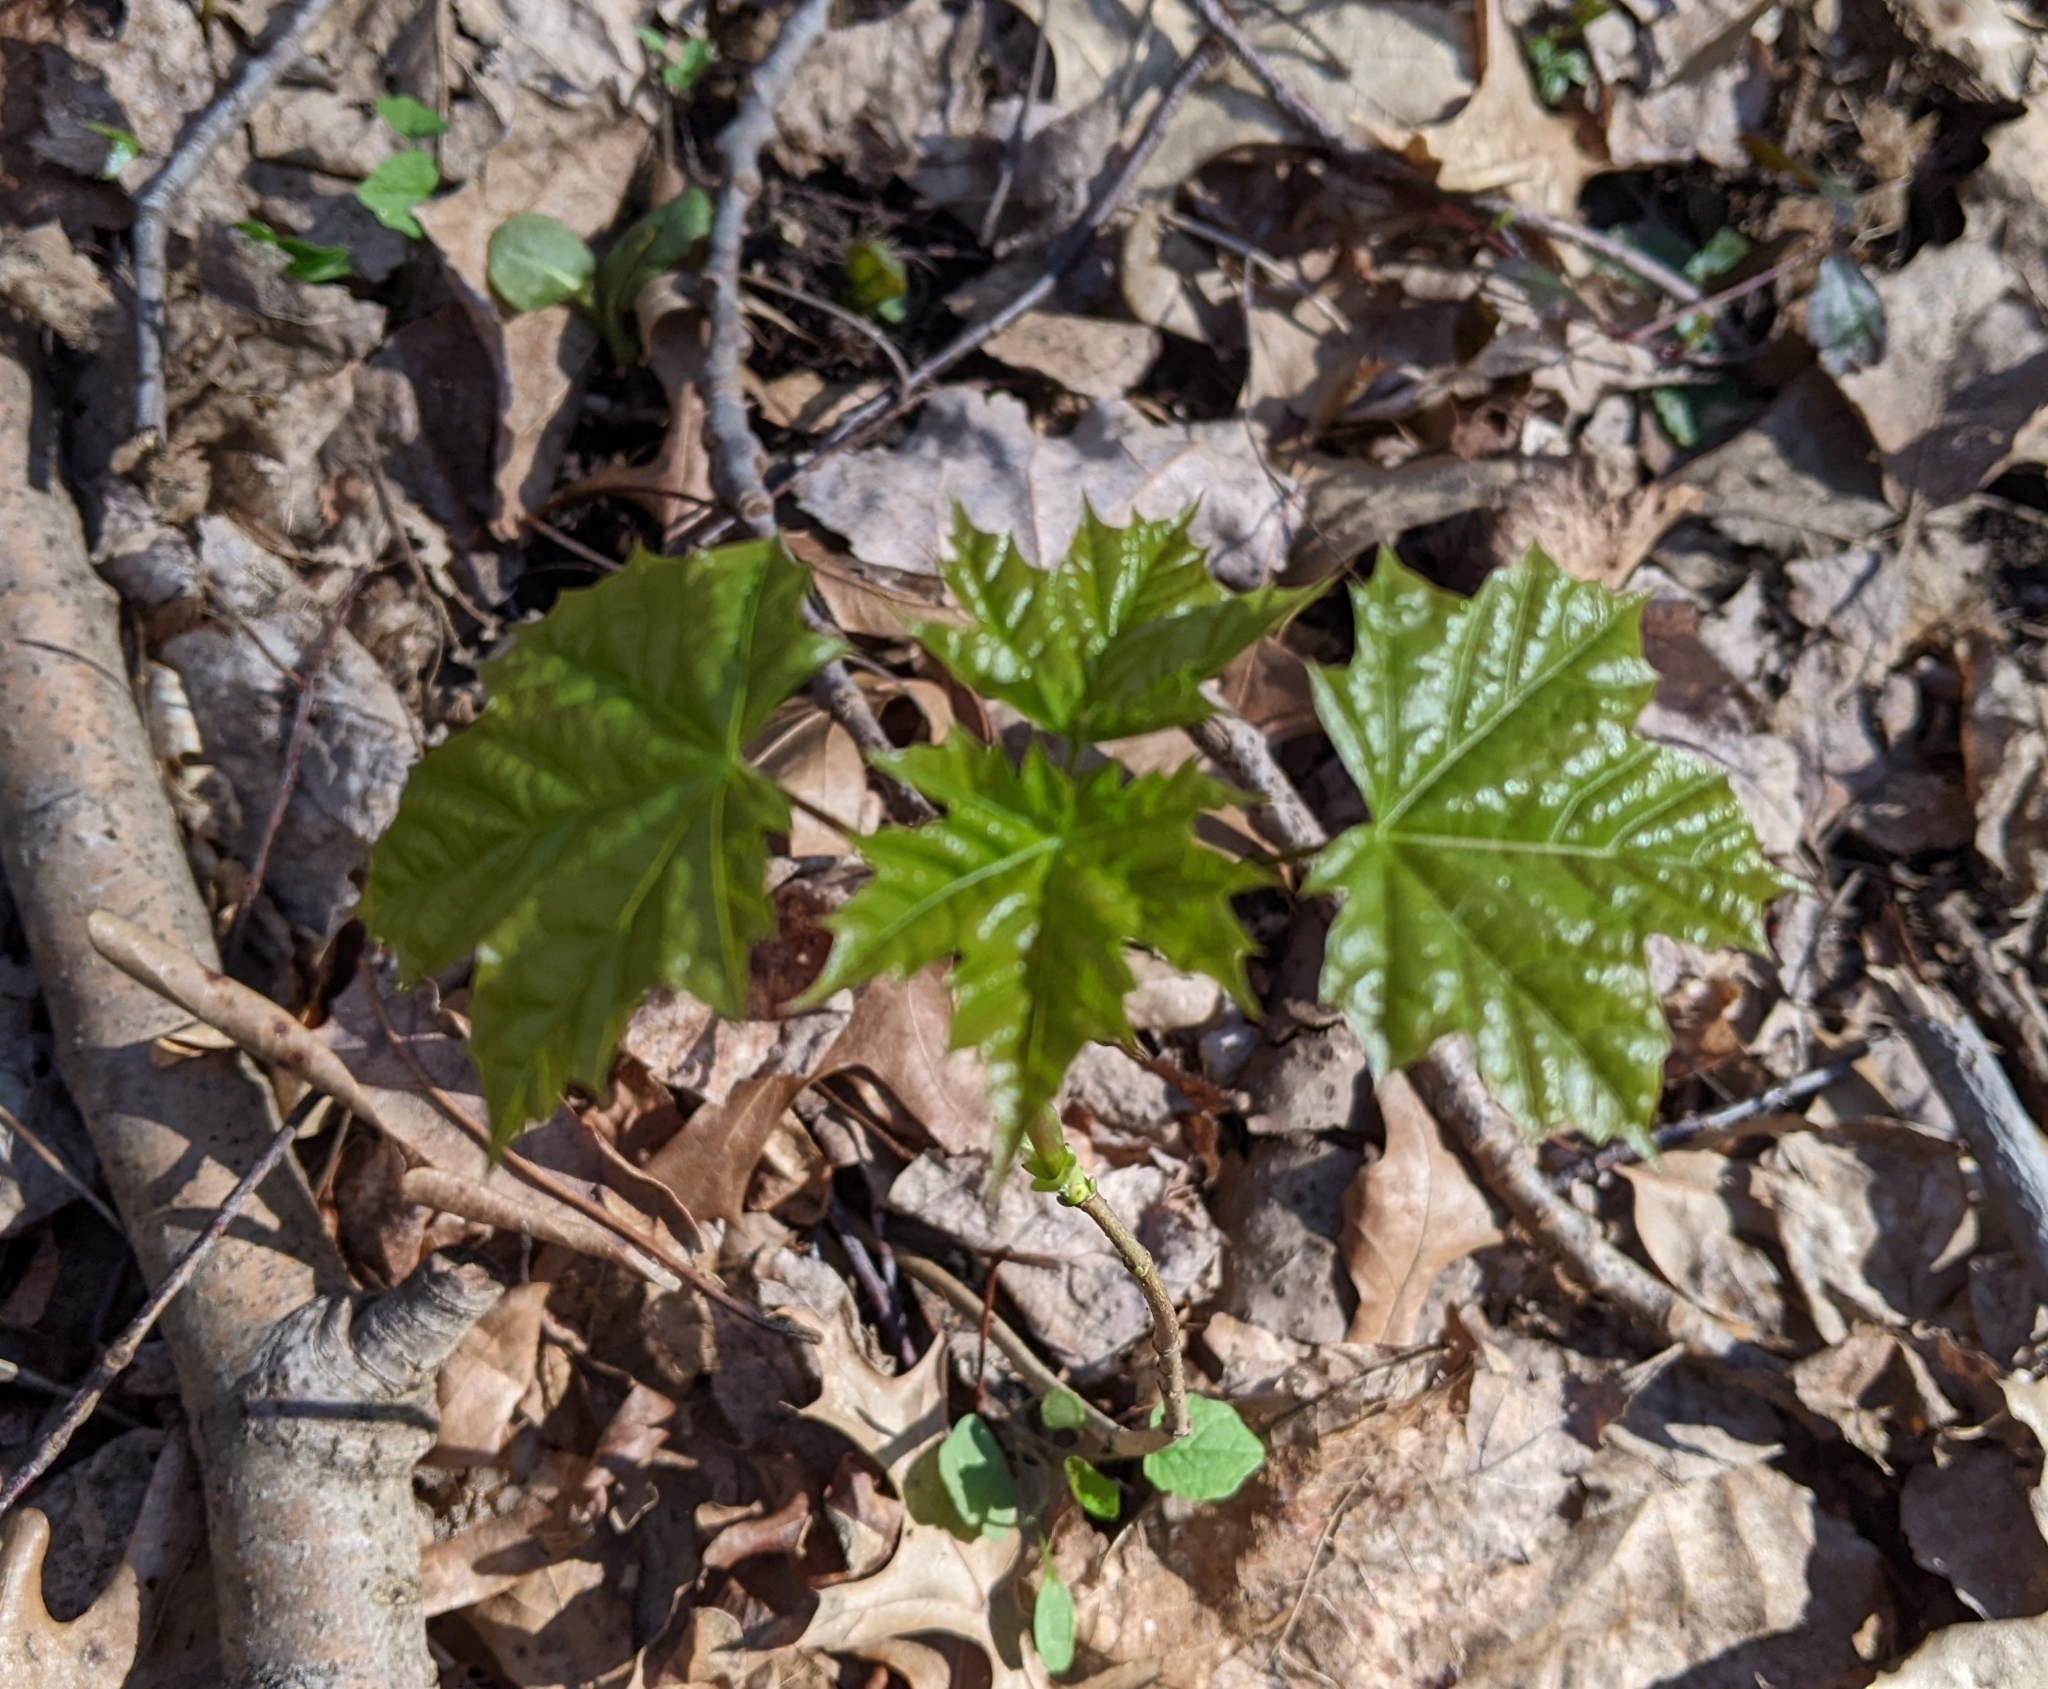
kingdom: Plantae
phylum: Tracheophyta
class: Magnoliopsida
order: Sapindales
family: Sapindaceae
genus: Acer
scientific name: Acer platanoides
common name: Norway maple
